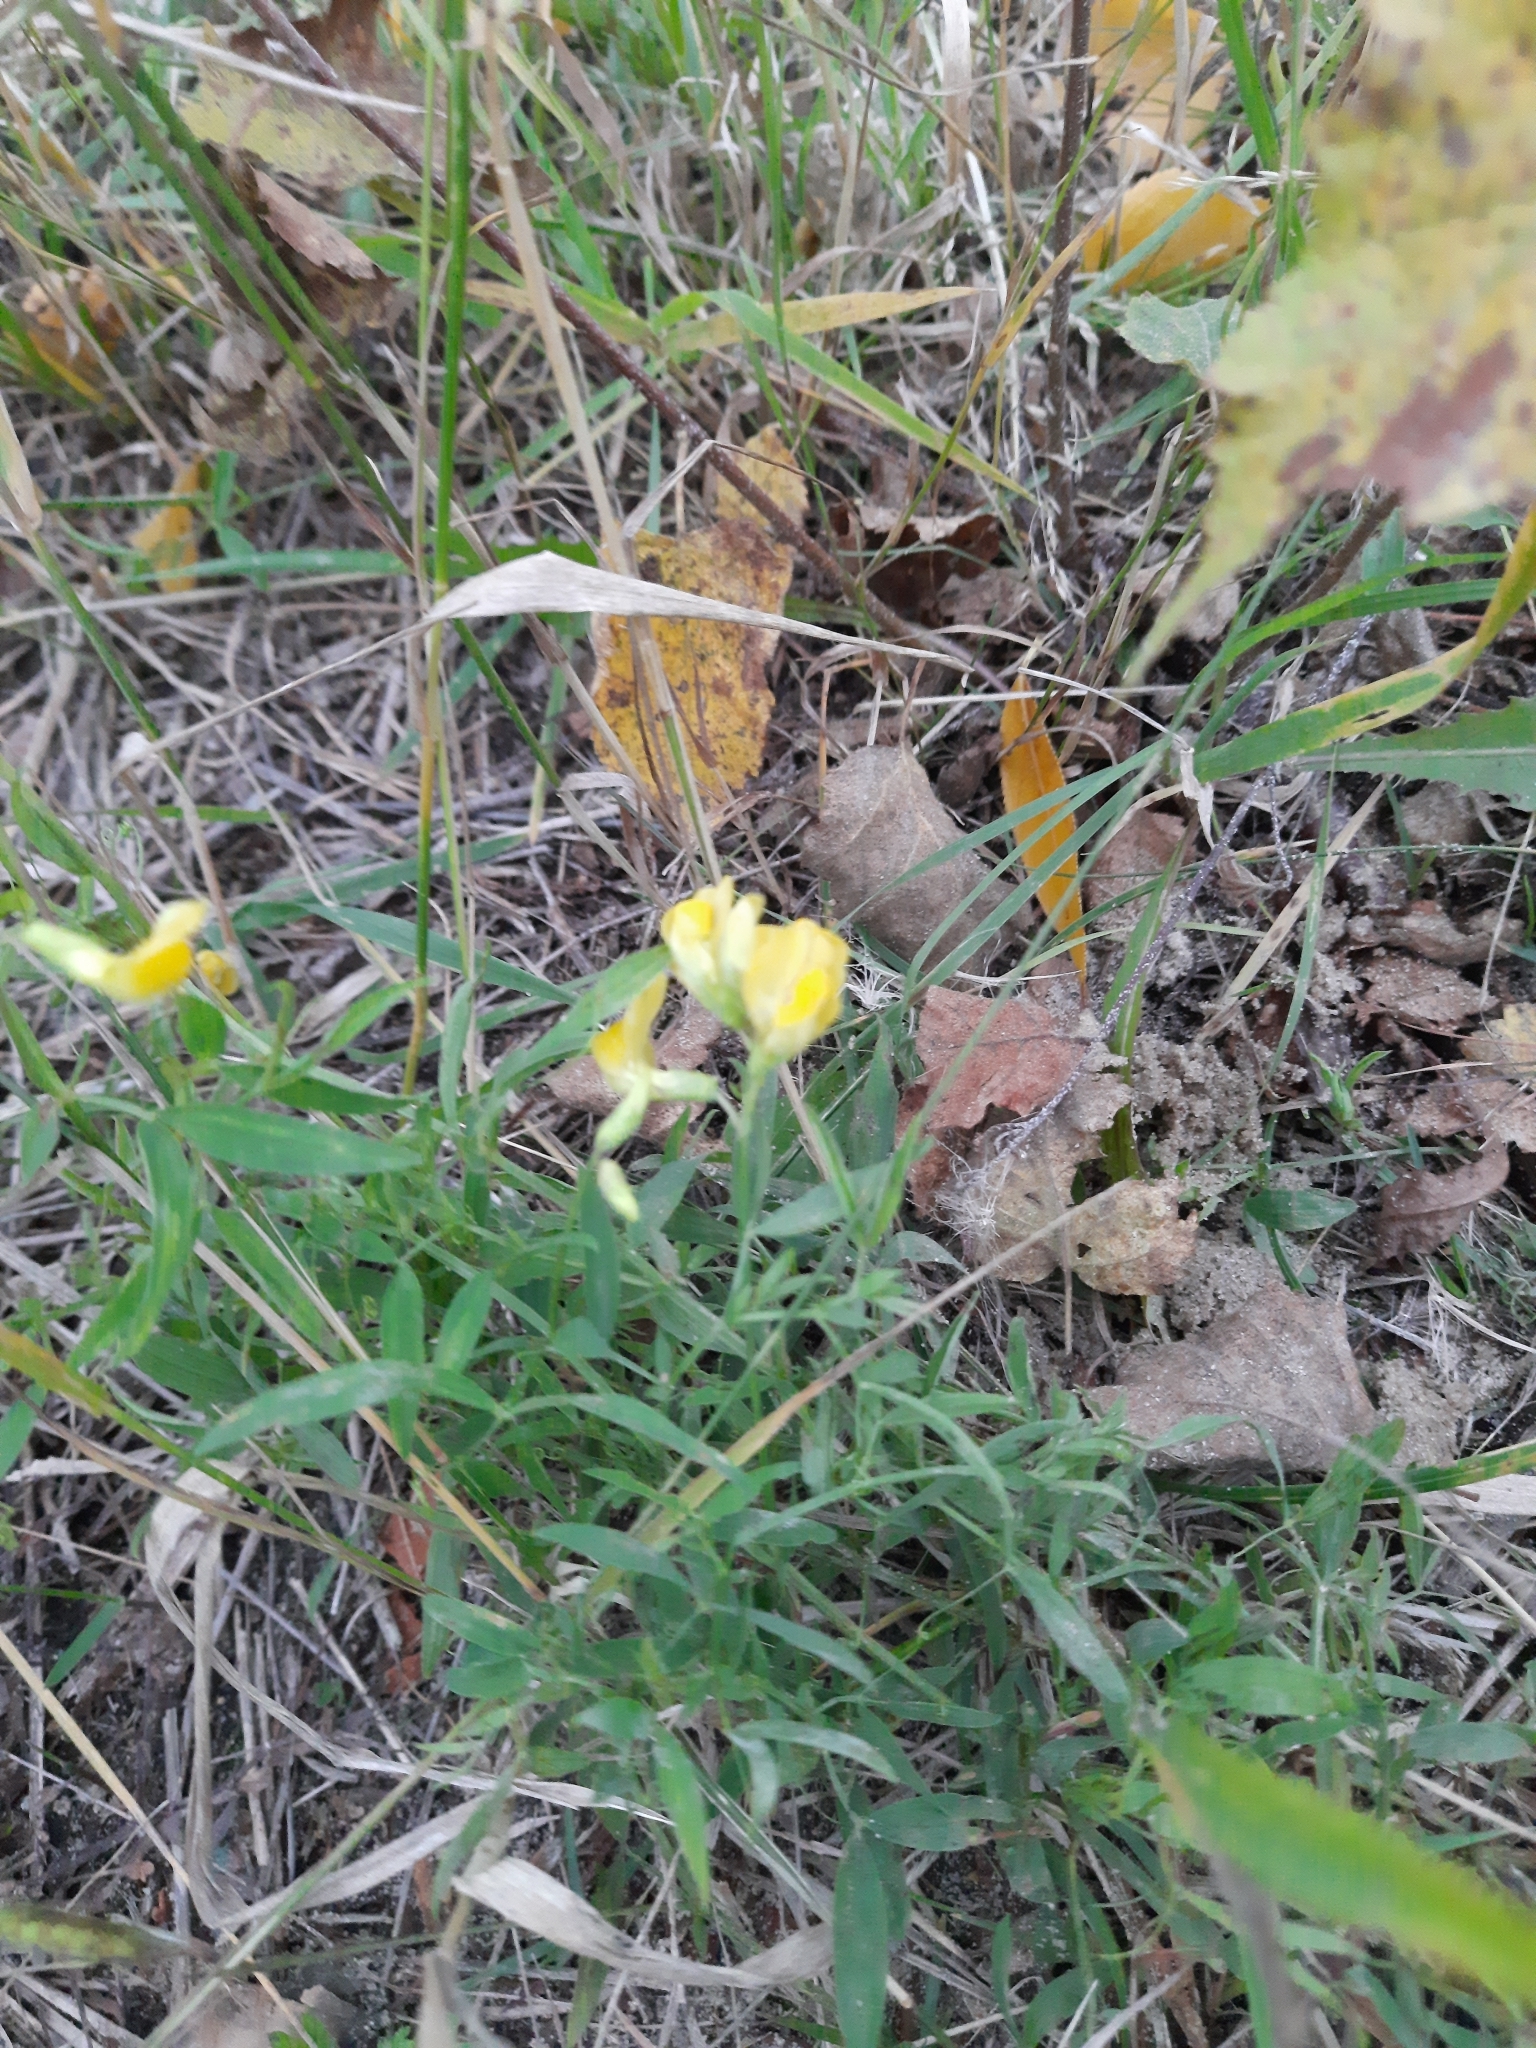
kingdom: Plantae
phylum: Tracheophyta
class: Magnoliopsida
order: Fabales
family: Fabaceae
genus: Lathyrus
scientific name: Lathyrus pratensis
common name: Meadow vetchling
